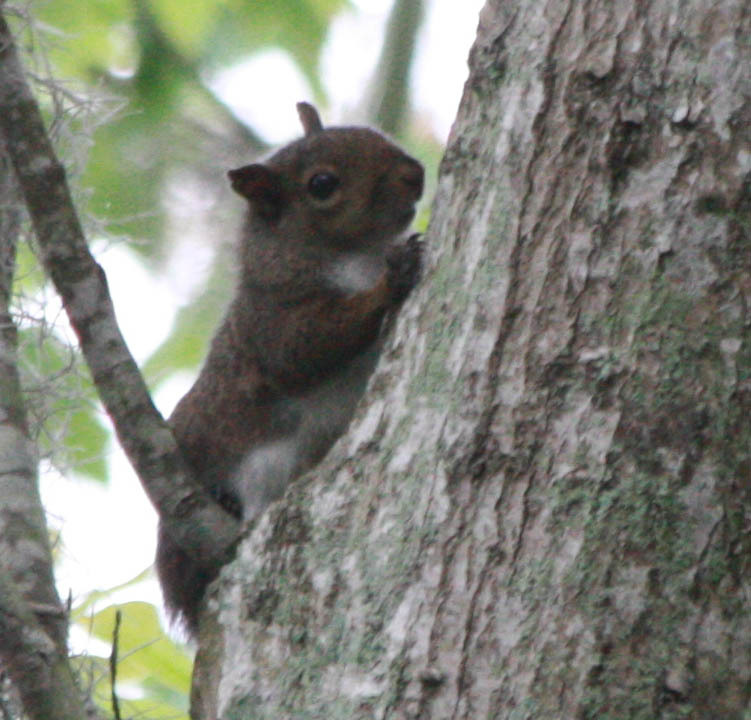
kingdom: Animalia
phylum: Chordata
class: Mammalia
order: Rodentia
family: Sciuridae
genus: Sciurus
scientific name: Sciurus carolinensis
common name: Eastern gray squirrel
